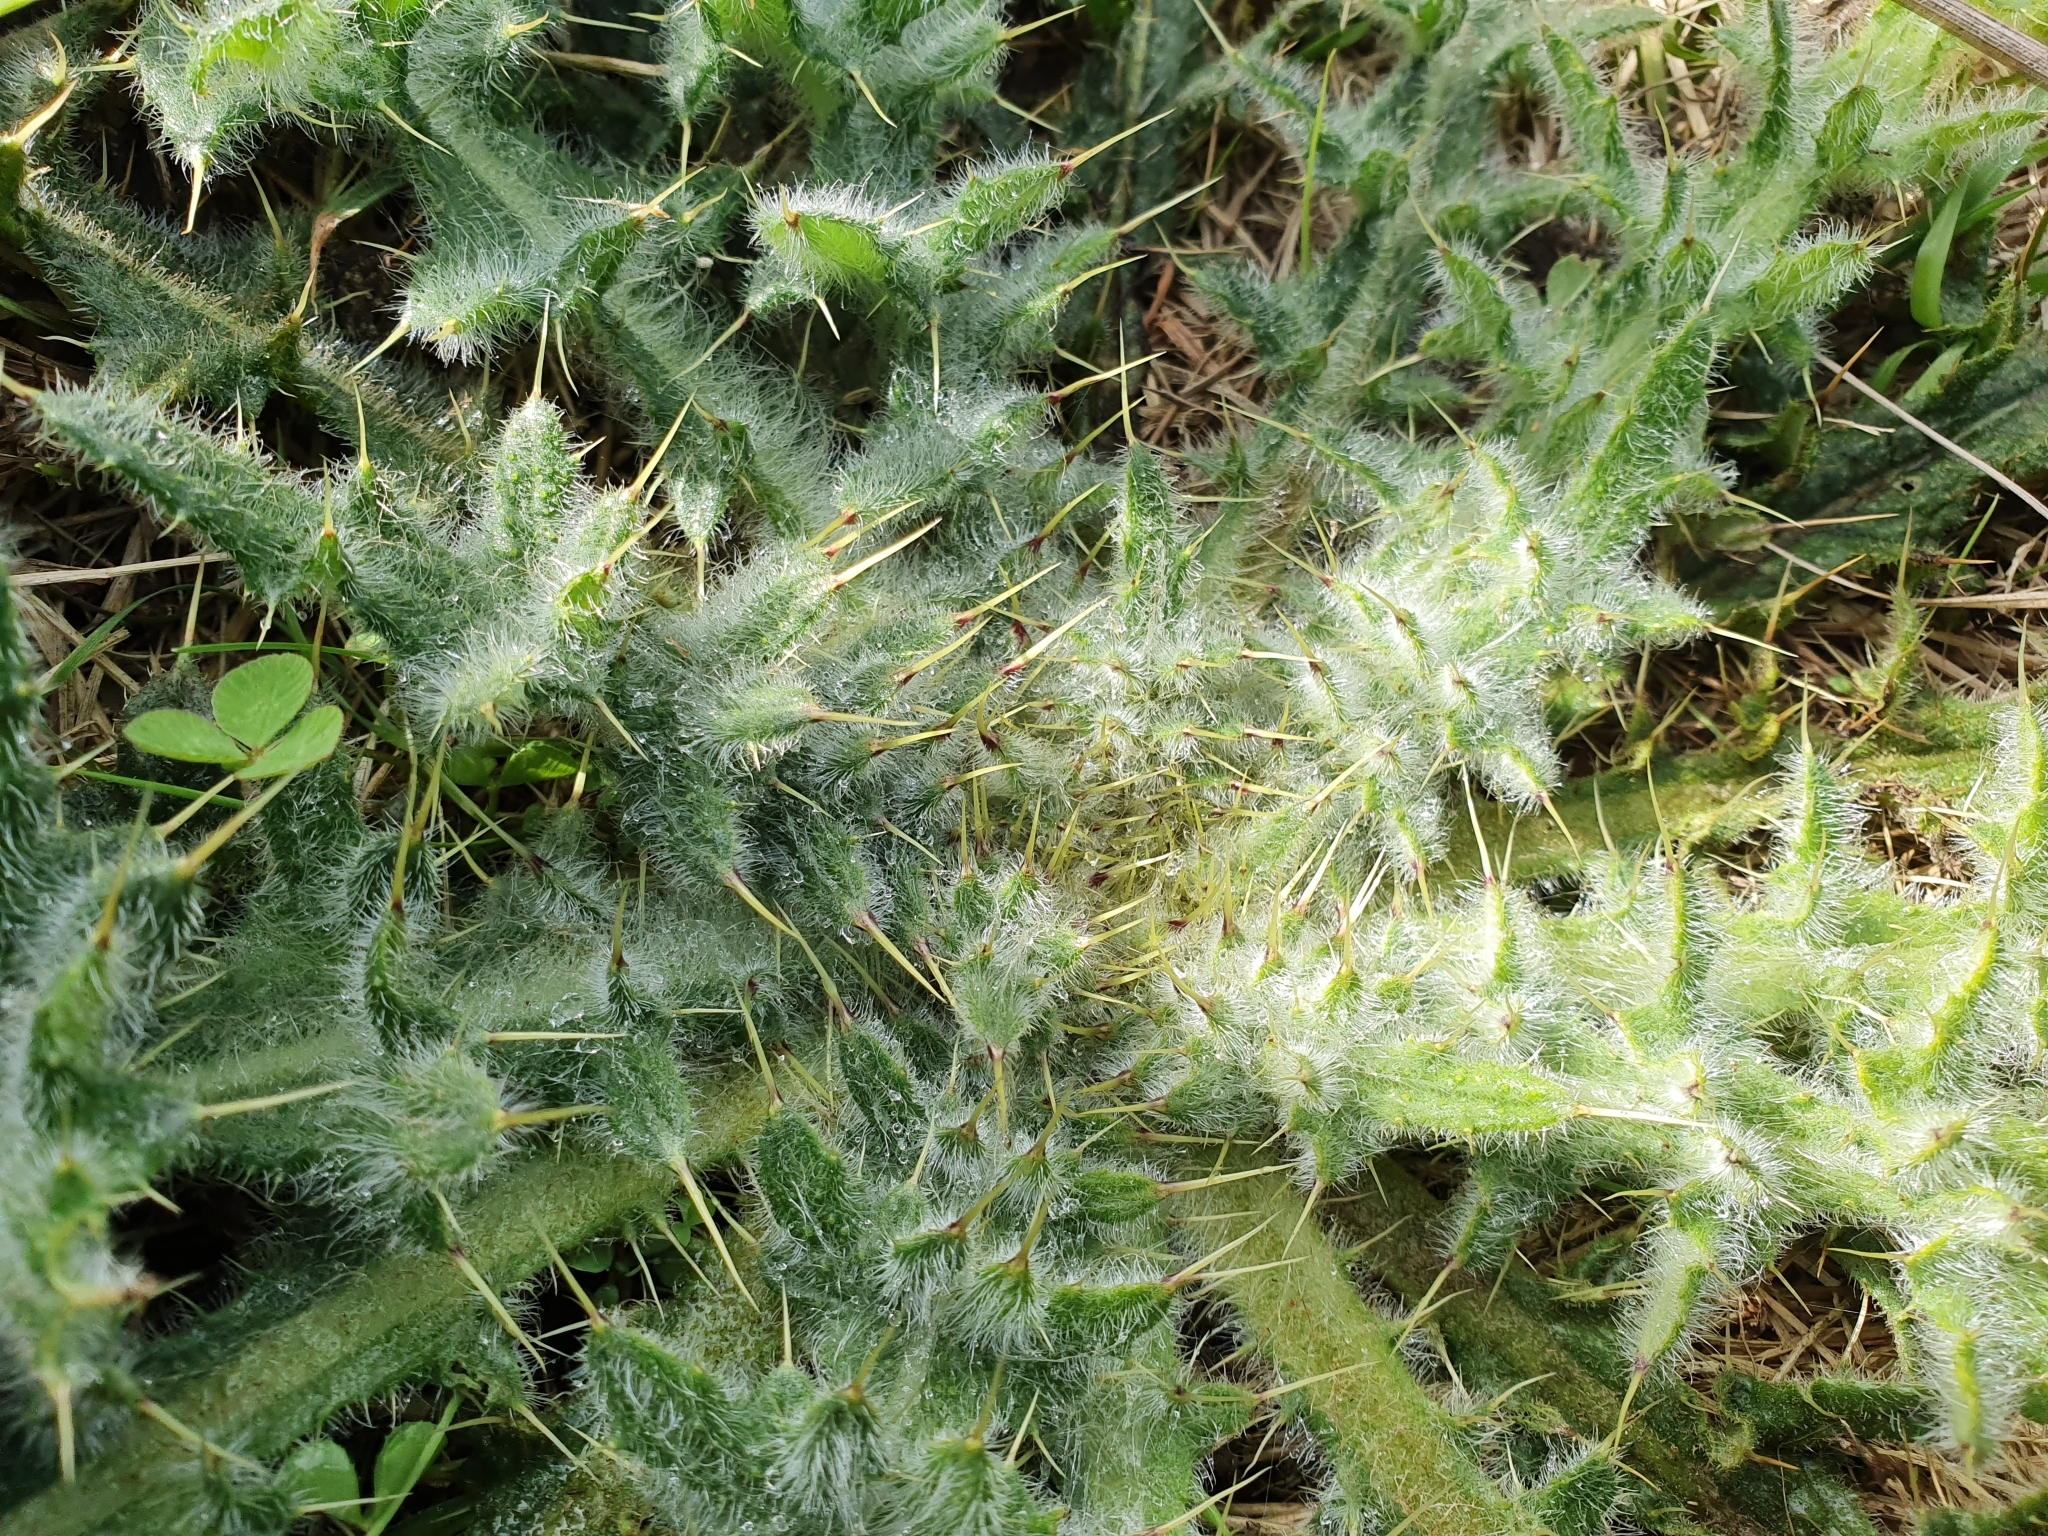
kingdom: Plantae
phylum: Tracheophyta
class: Magnoliopsida
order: Asterales
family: Asteraceae
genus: Cirsium
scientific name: Cirsium vulgare
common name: Bull thistle
